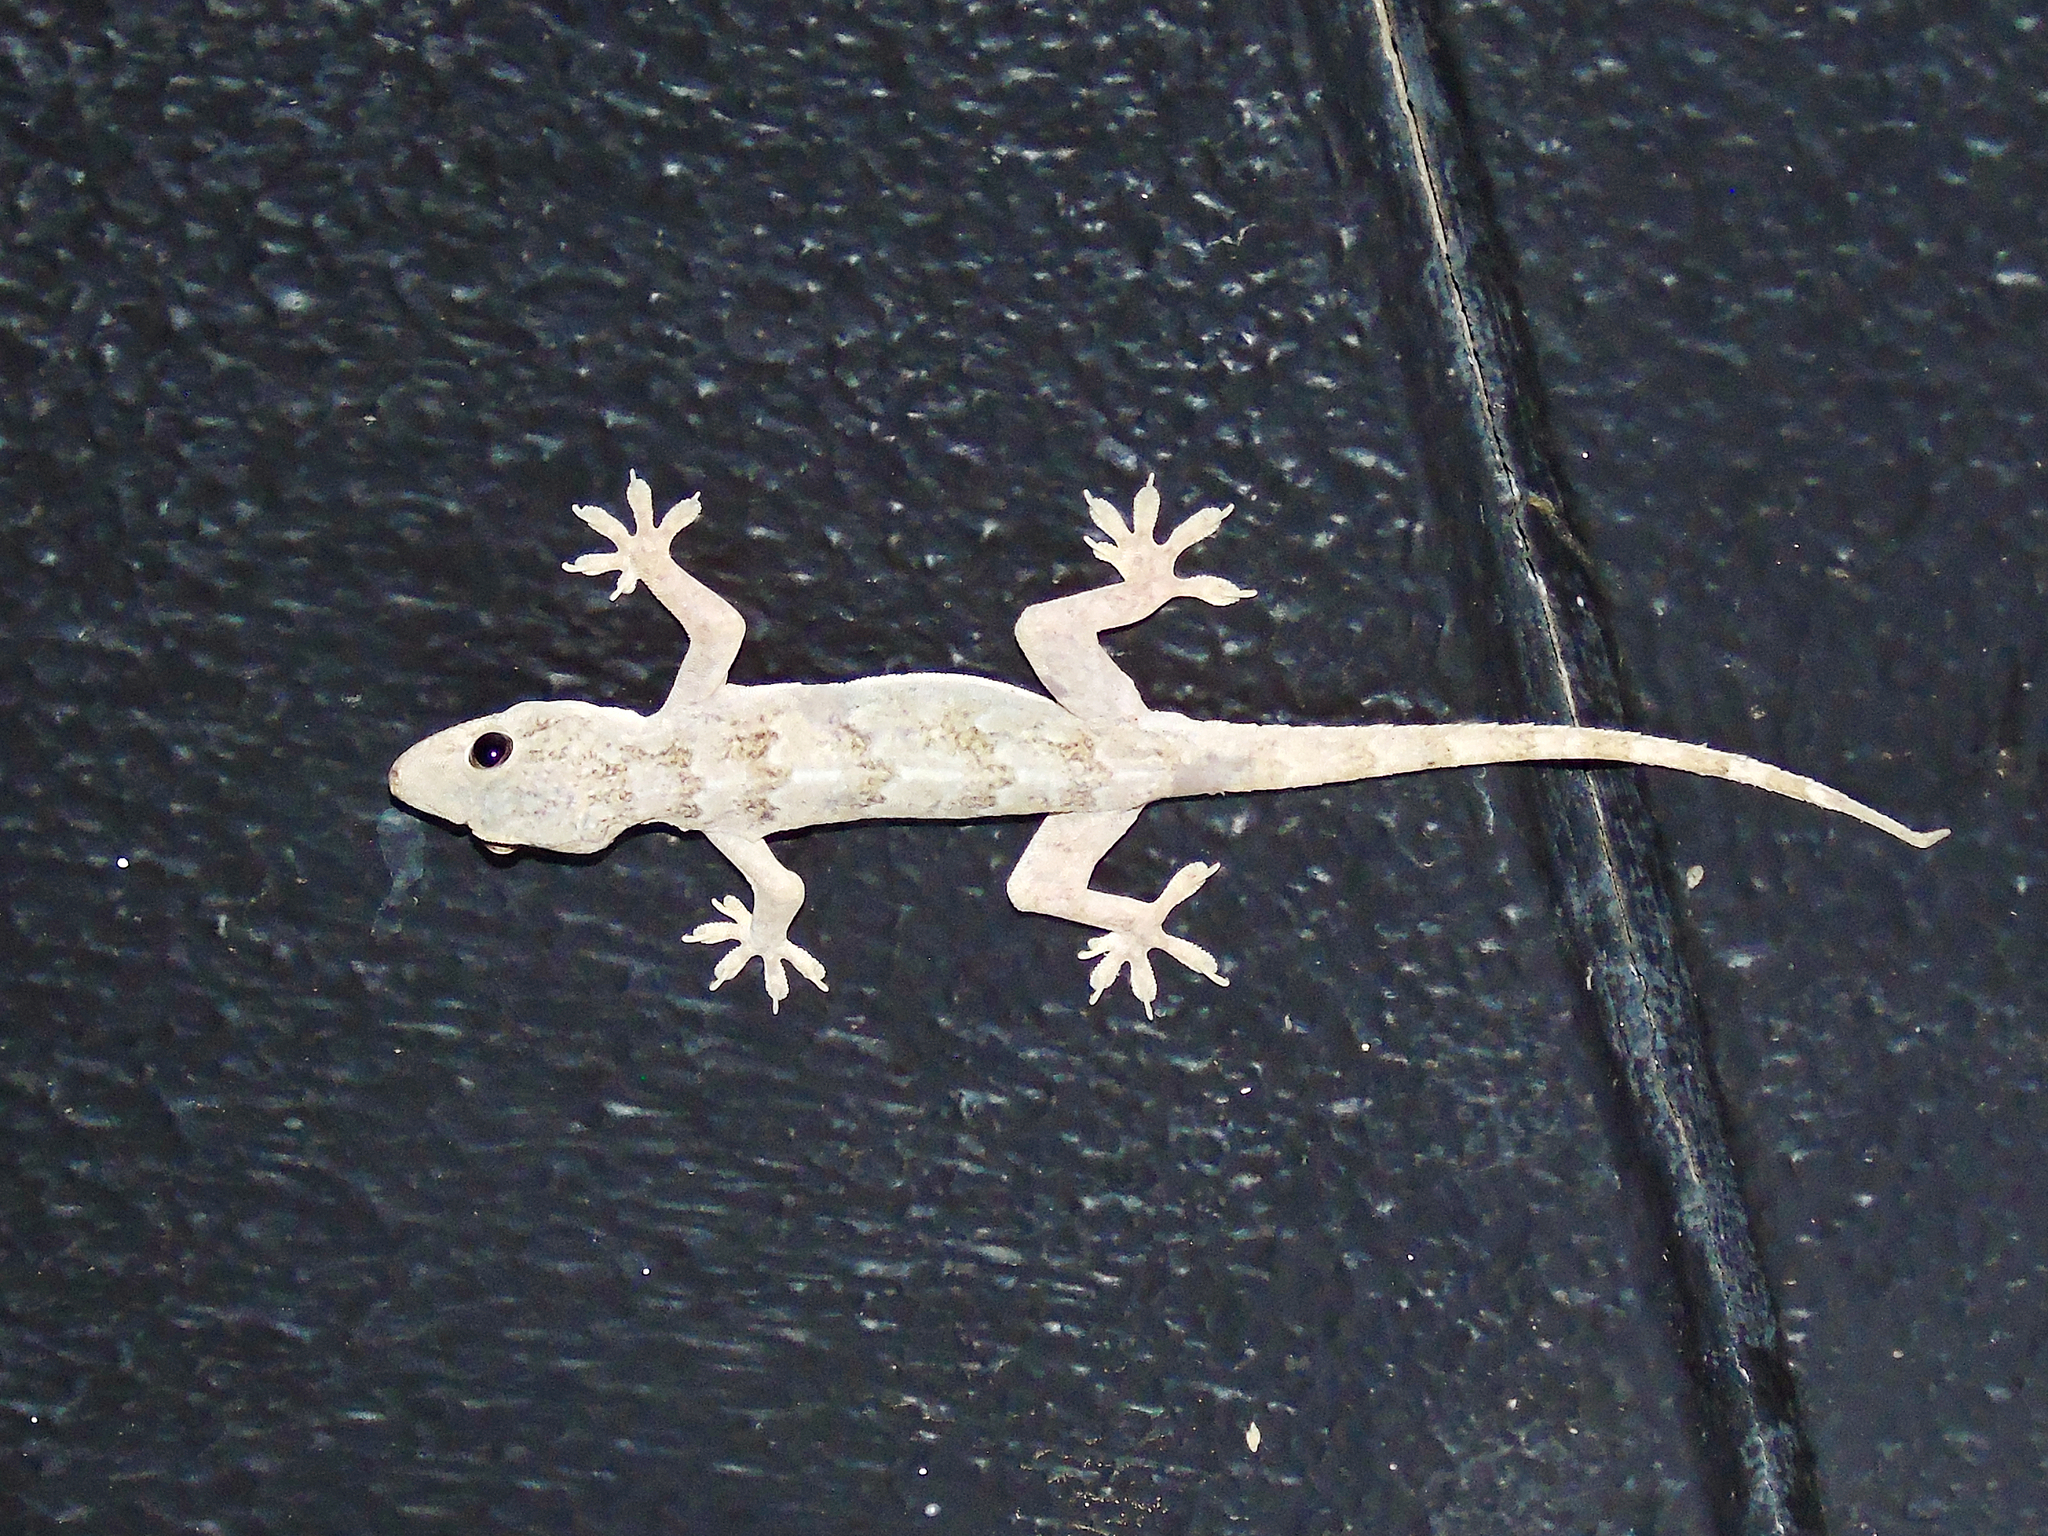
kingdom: Animalia
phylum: Chordata
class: Squamata
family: Gekkonidae
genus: Hemidactylus
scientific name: Hemidactylus flaviviridis
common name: Northern house gecko
